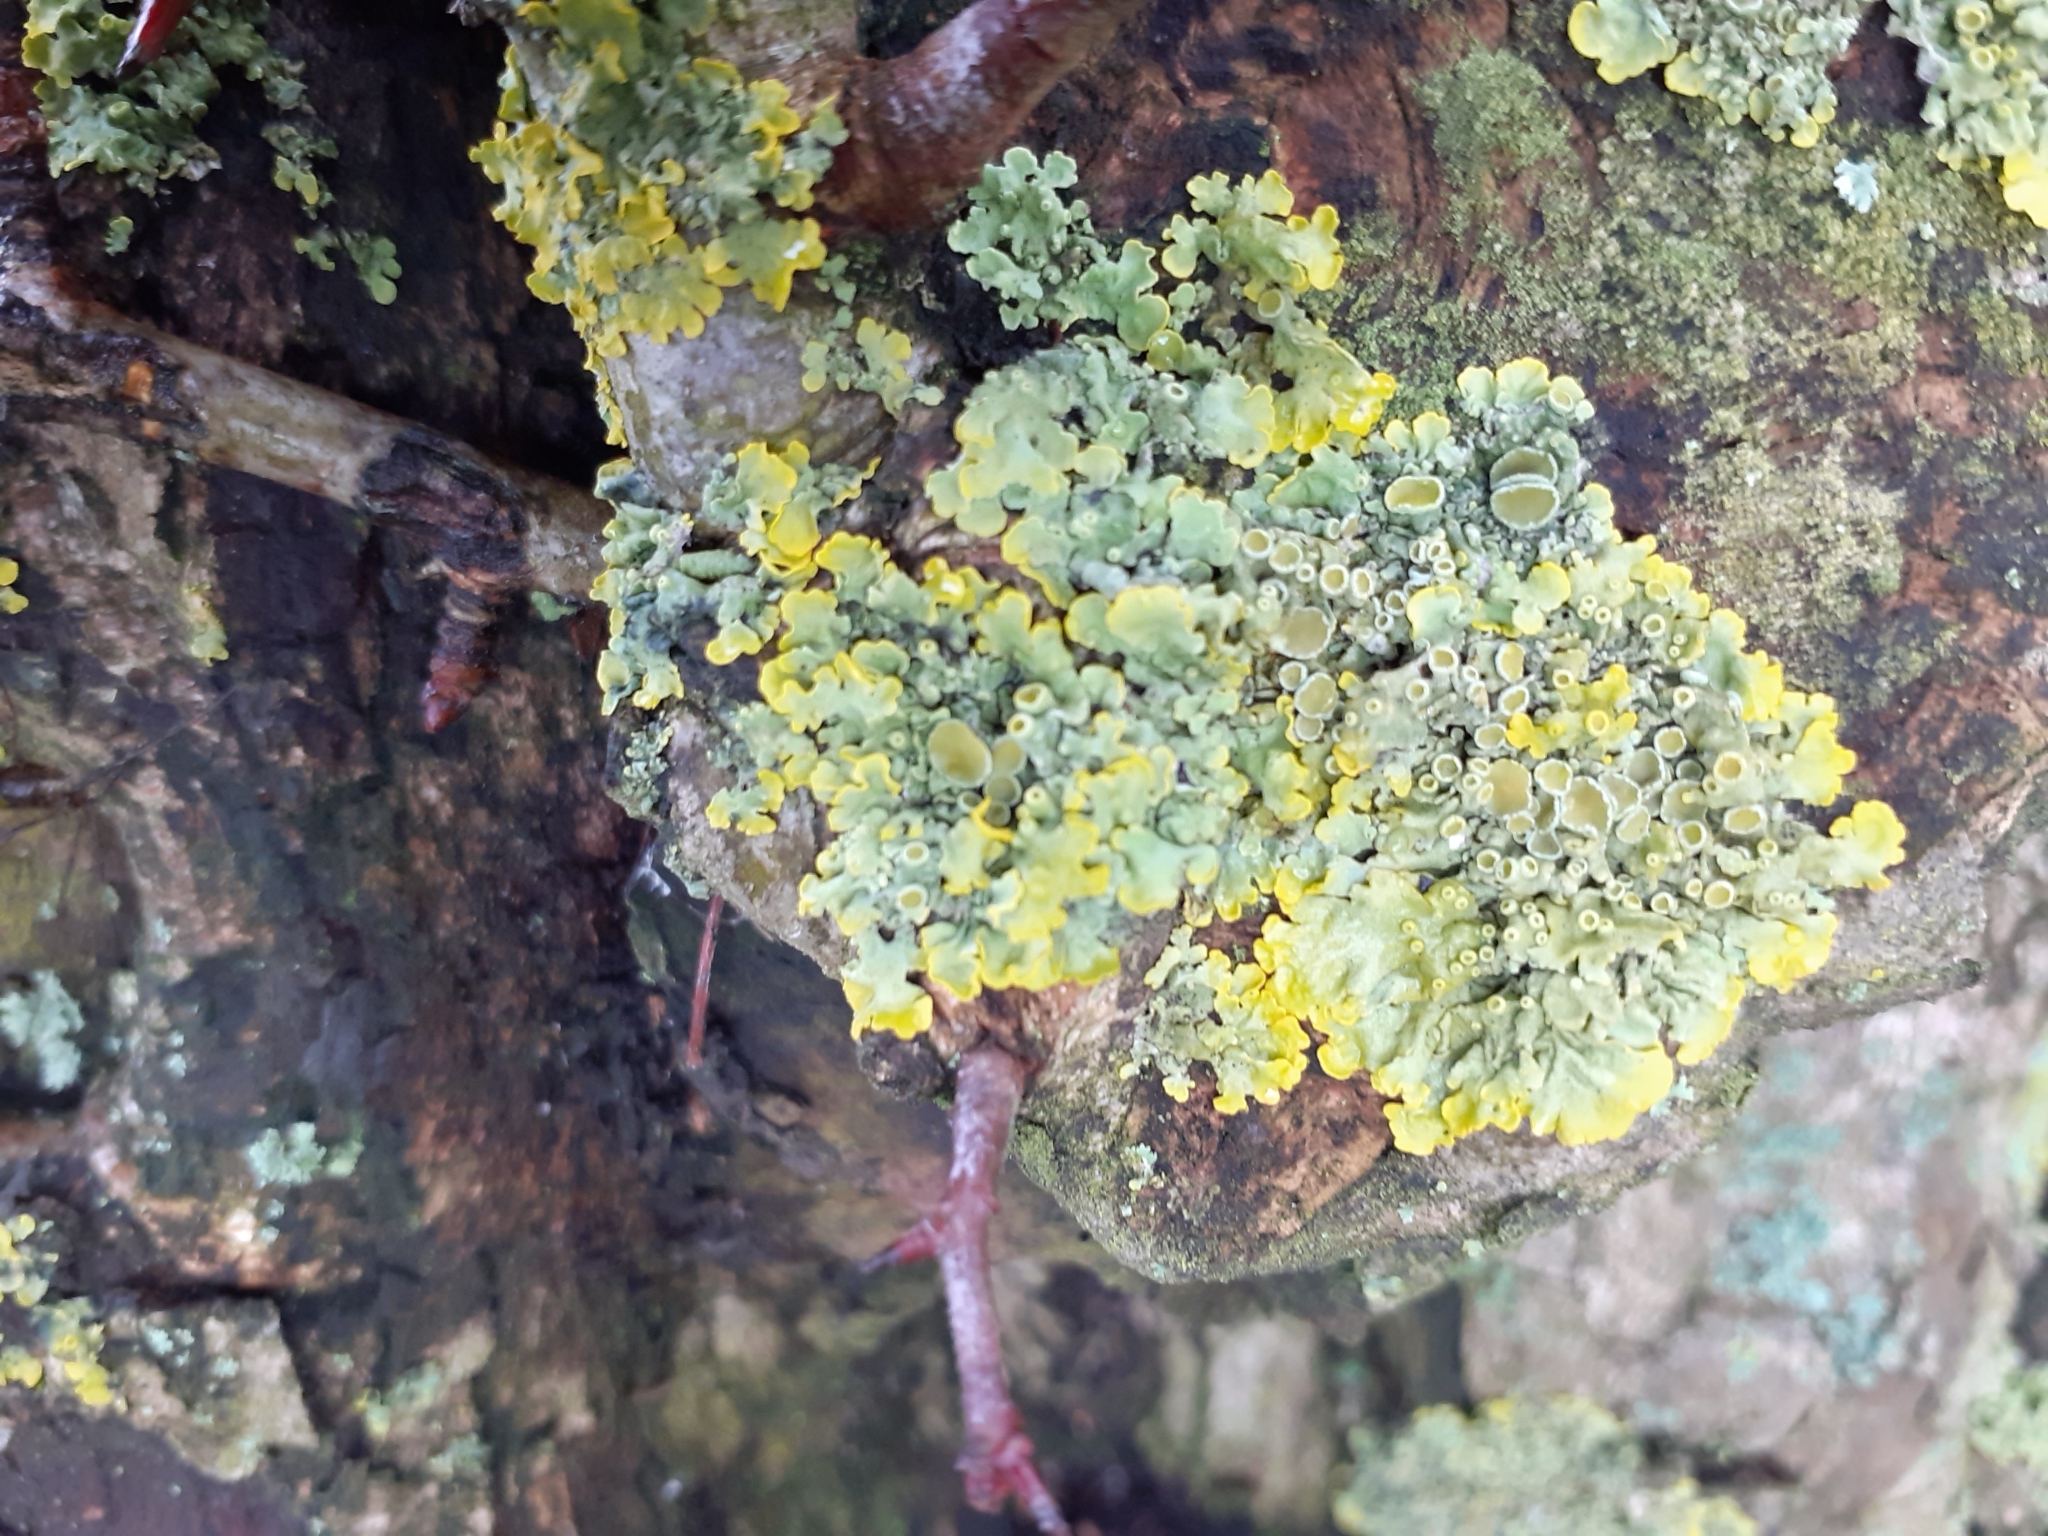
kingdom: Fungi
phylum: Ascomycota
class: Lecanoromycetes
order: Teloschistales
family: Teloschistaceae
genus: Xanthoria
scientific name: Xanthoria parietina
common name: Common orange lichen
